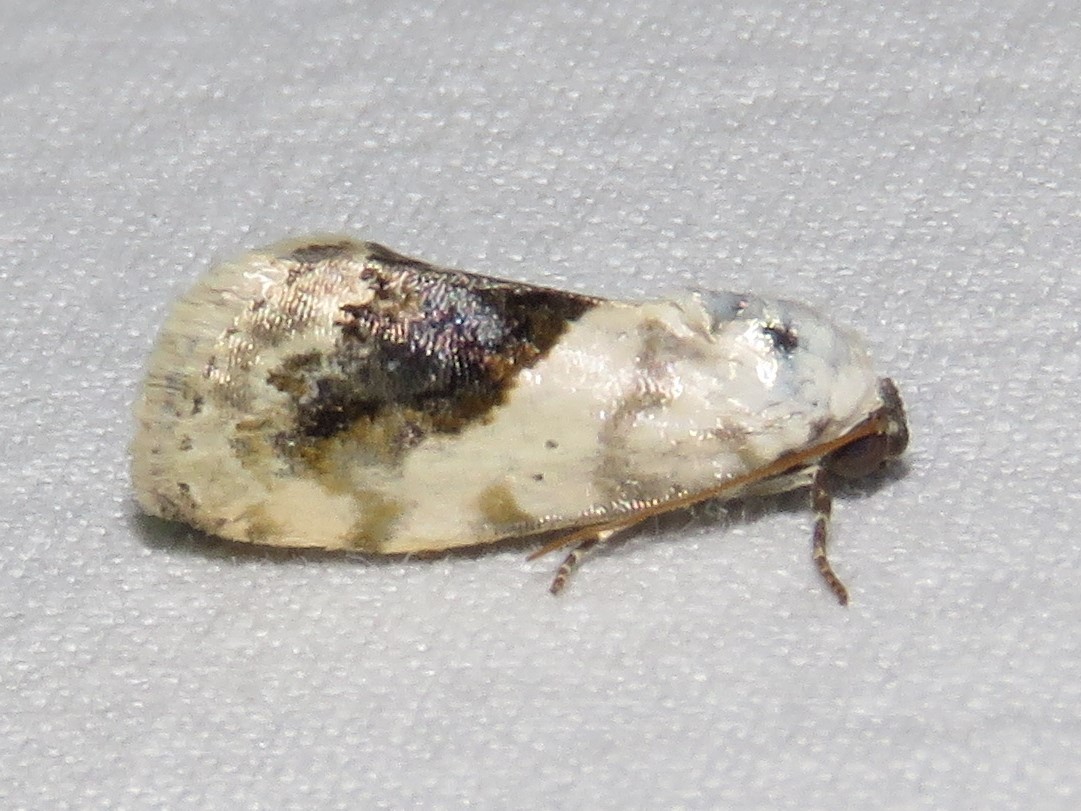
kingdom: Animalia
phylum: Arthropoda
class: Insecta
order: Lepidoptera
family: Noctuidae
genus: Acontia
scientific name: Acontia erastrioides
